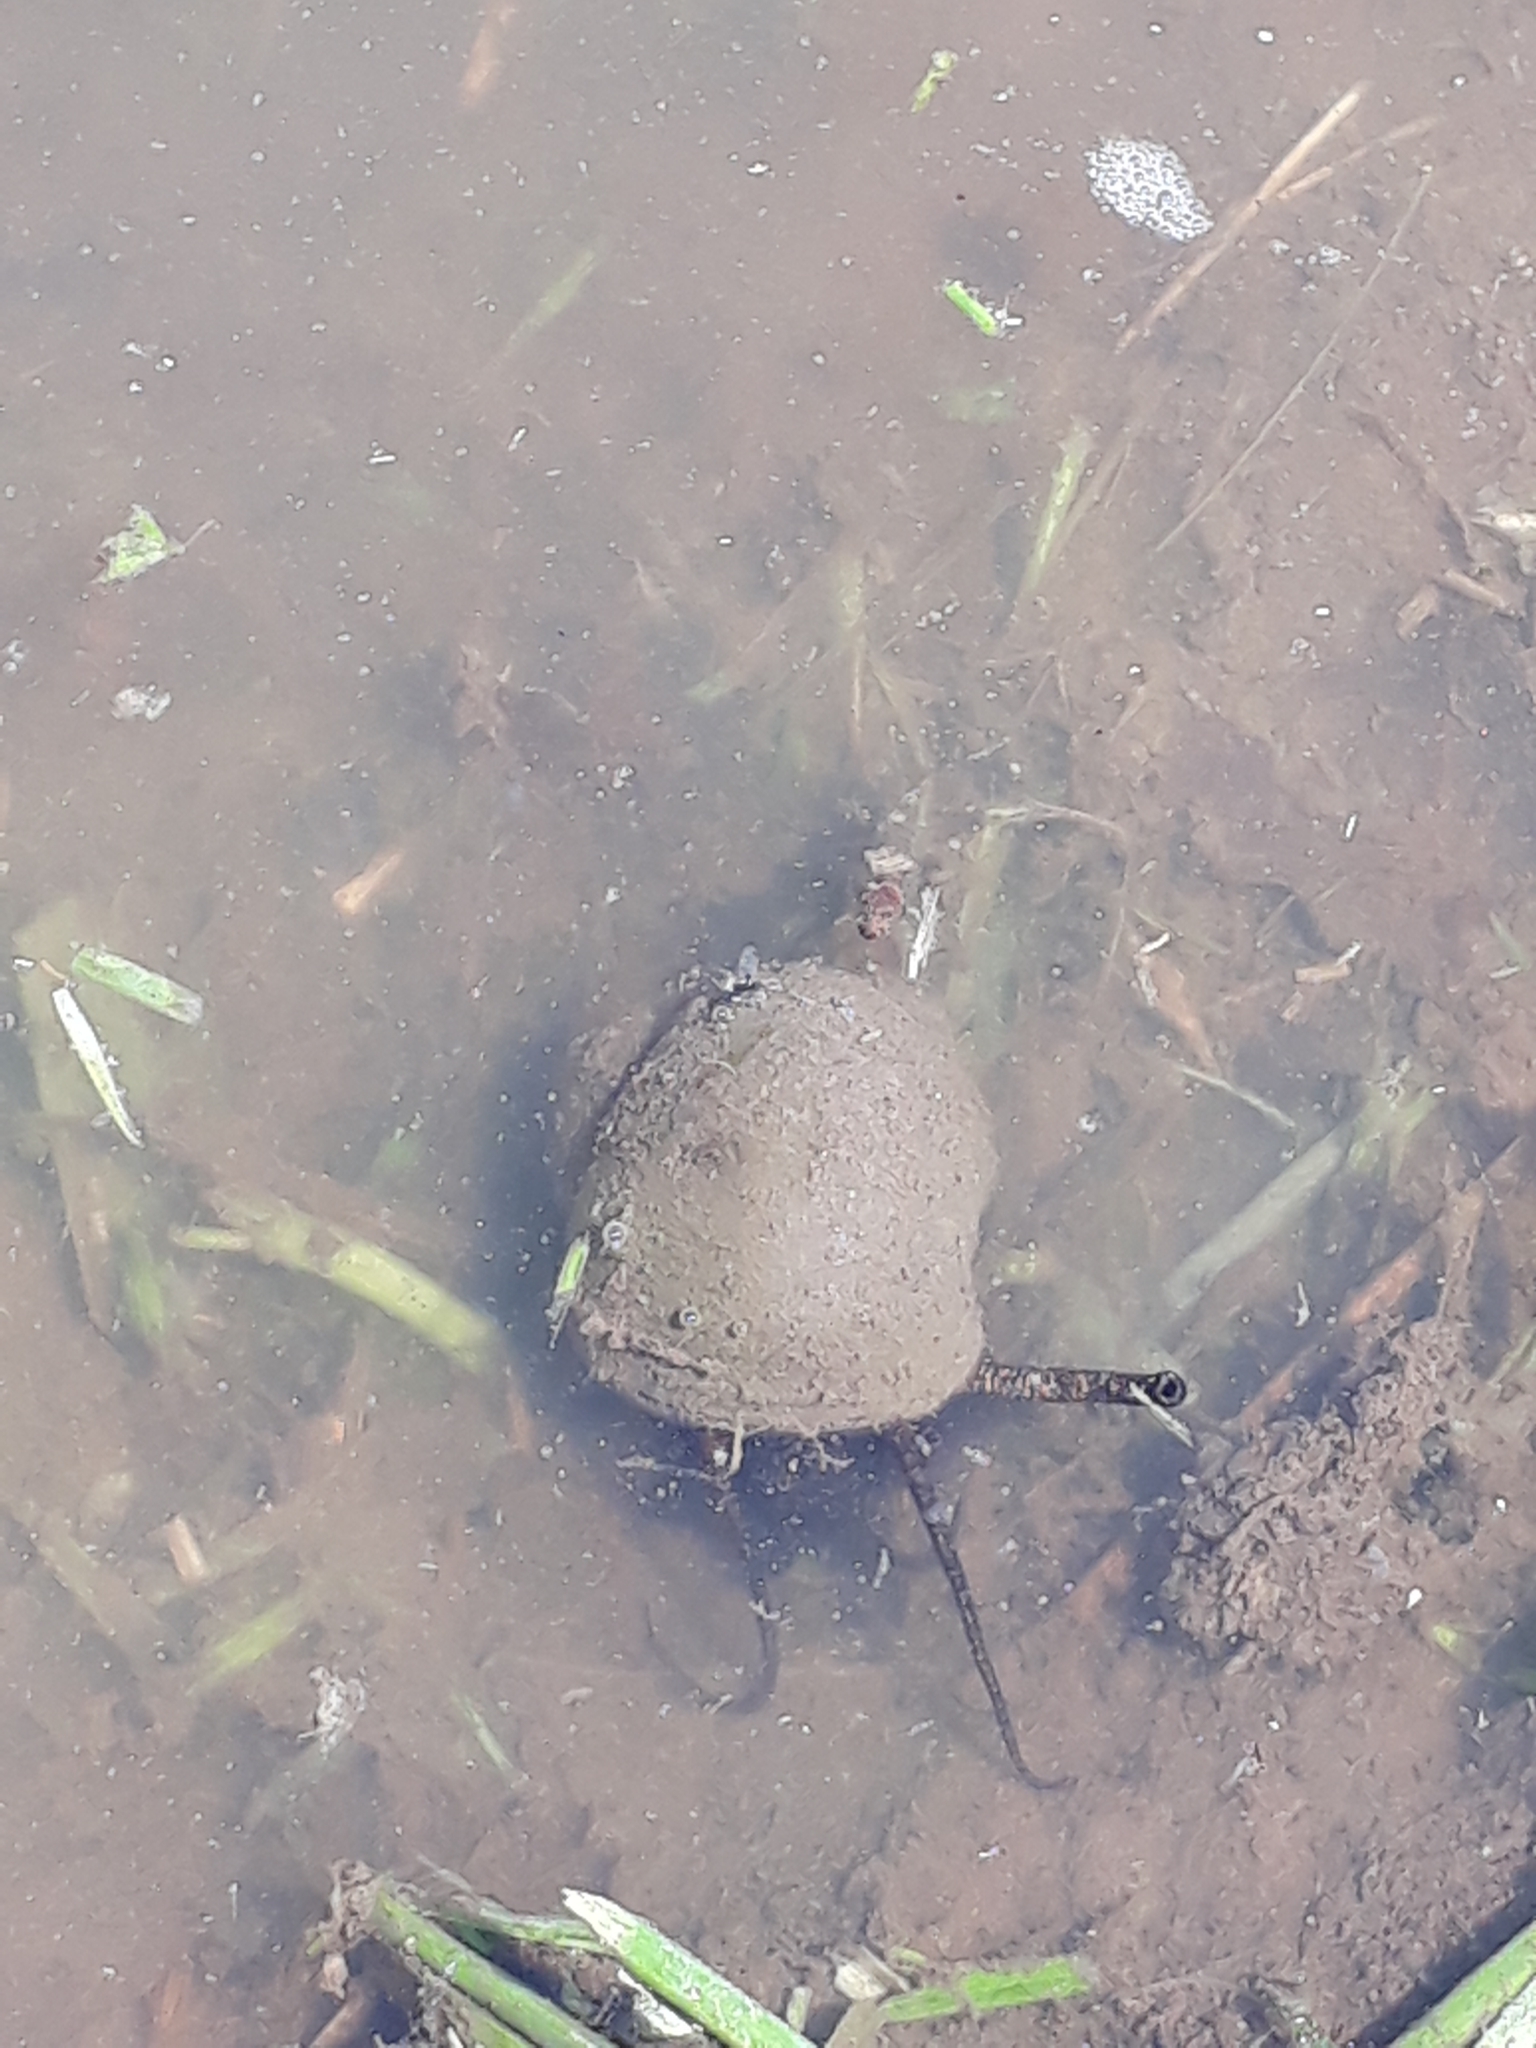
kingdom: Animalia
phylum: Mollusca
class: Gastropoda
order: Architaenioglossa
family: Ampullariidae
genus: Pomacea
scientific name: Pomacea canaliculata
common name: Channeled applesnail
